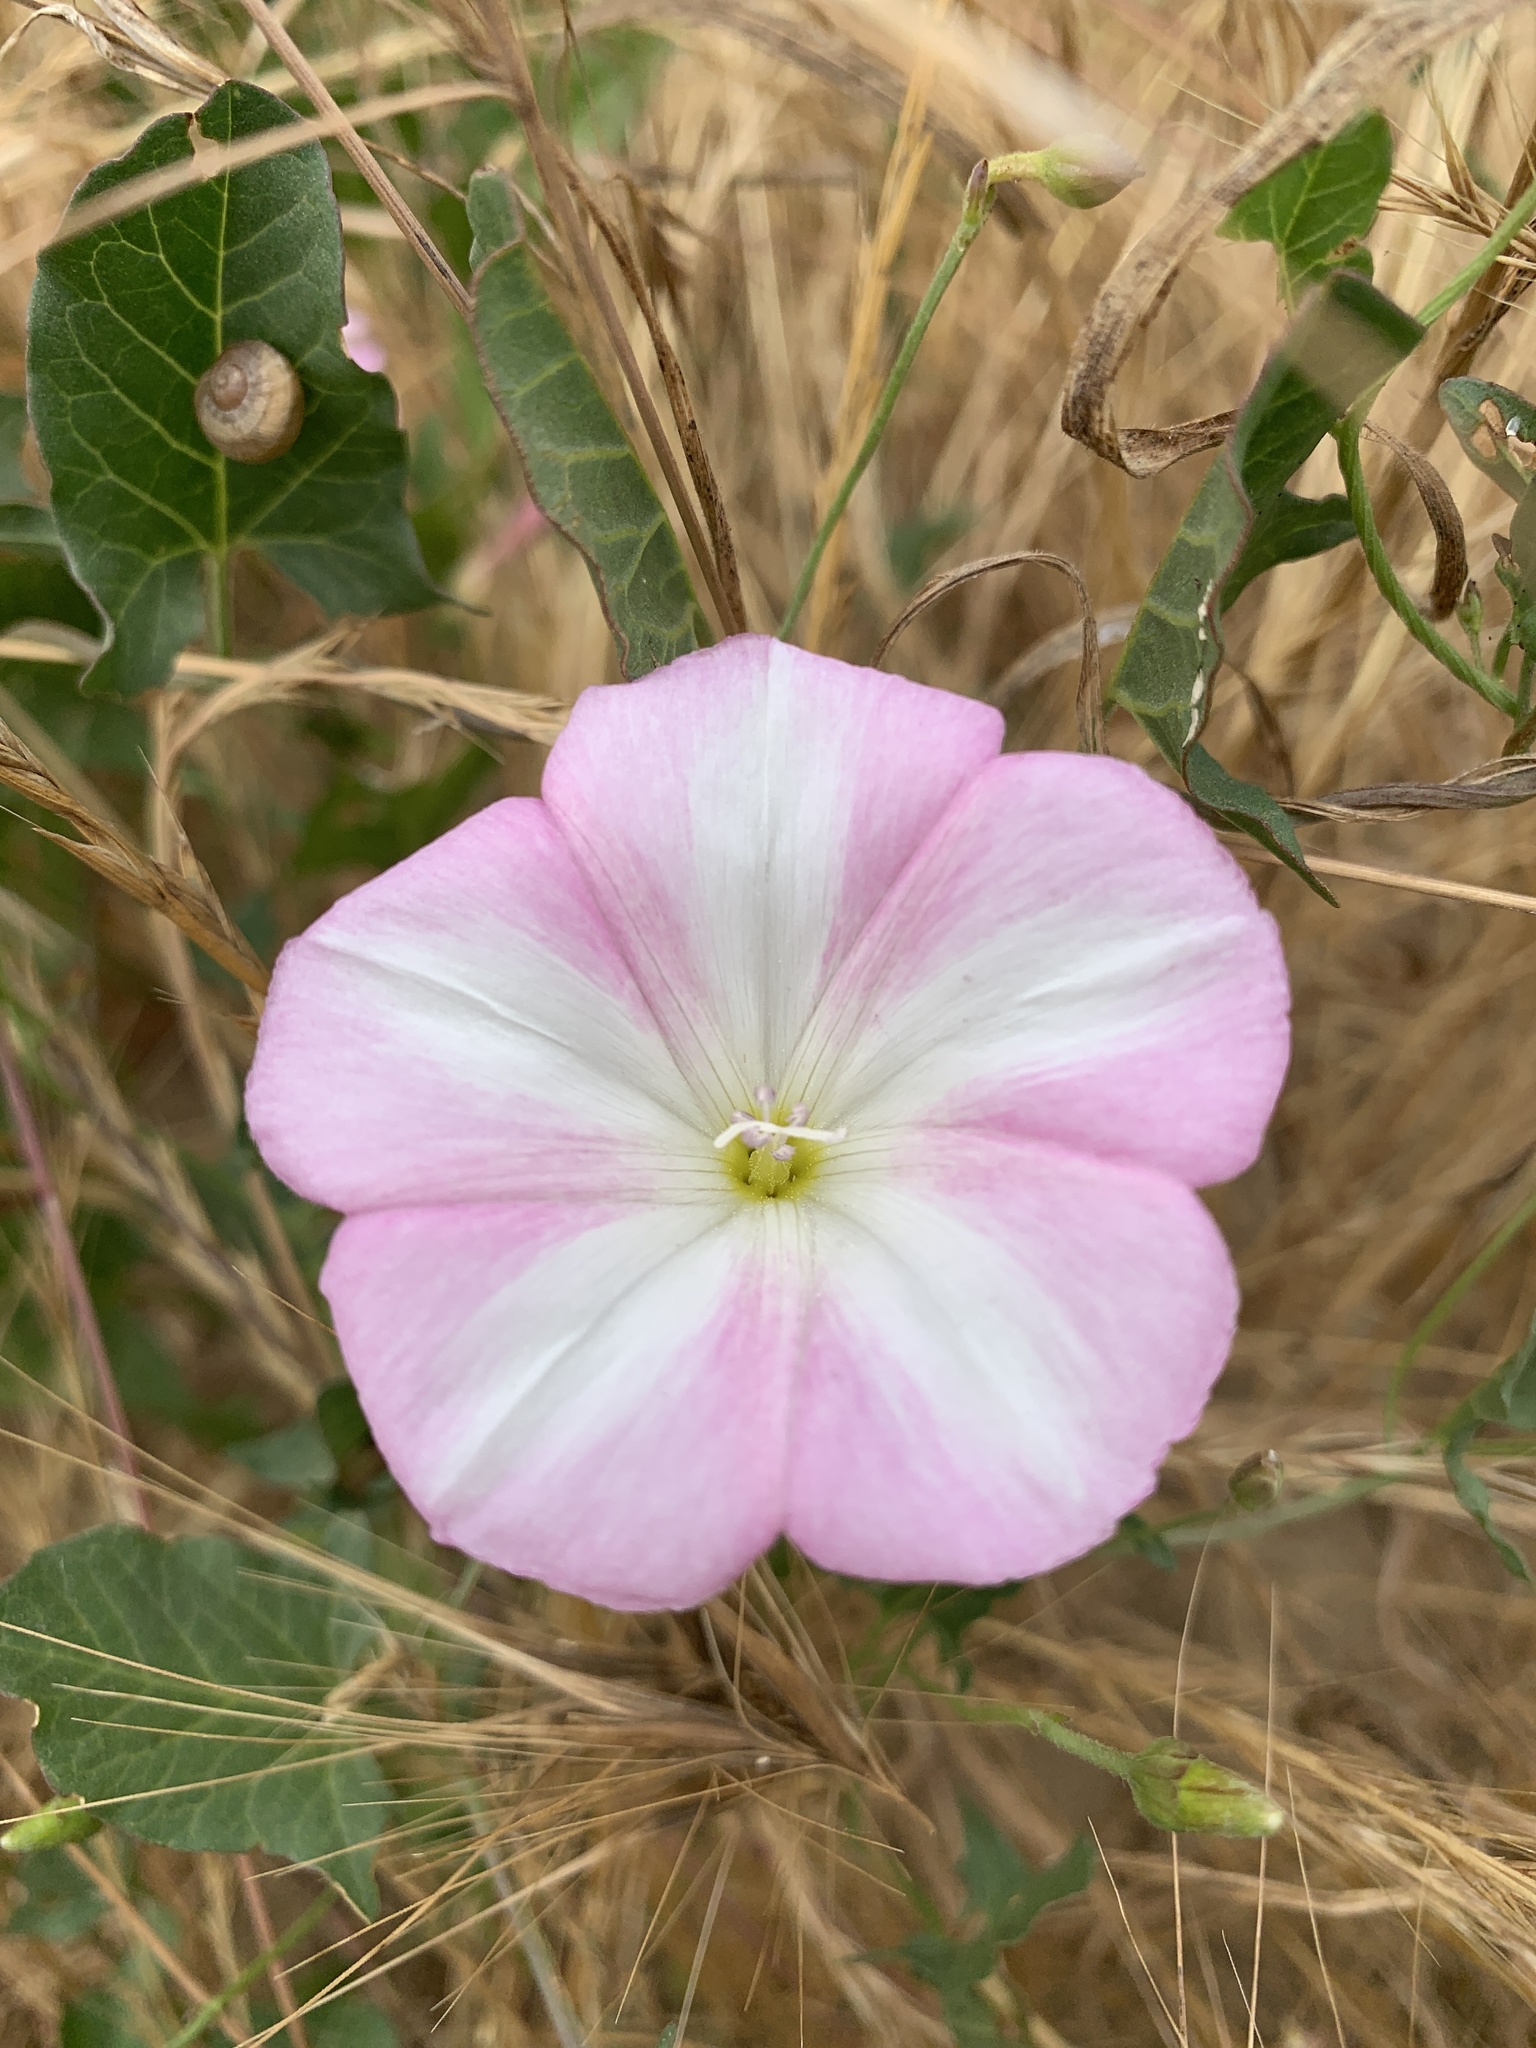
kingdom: Plantae
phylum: Tracheophyta
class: Magnoliopsida
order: Solanales
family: Convolvulaceae
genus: Convolvulus
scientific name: Convolvulus arvensis
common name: Field bindweed
